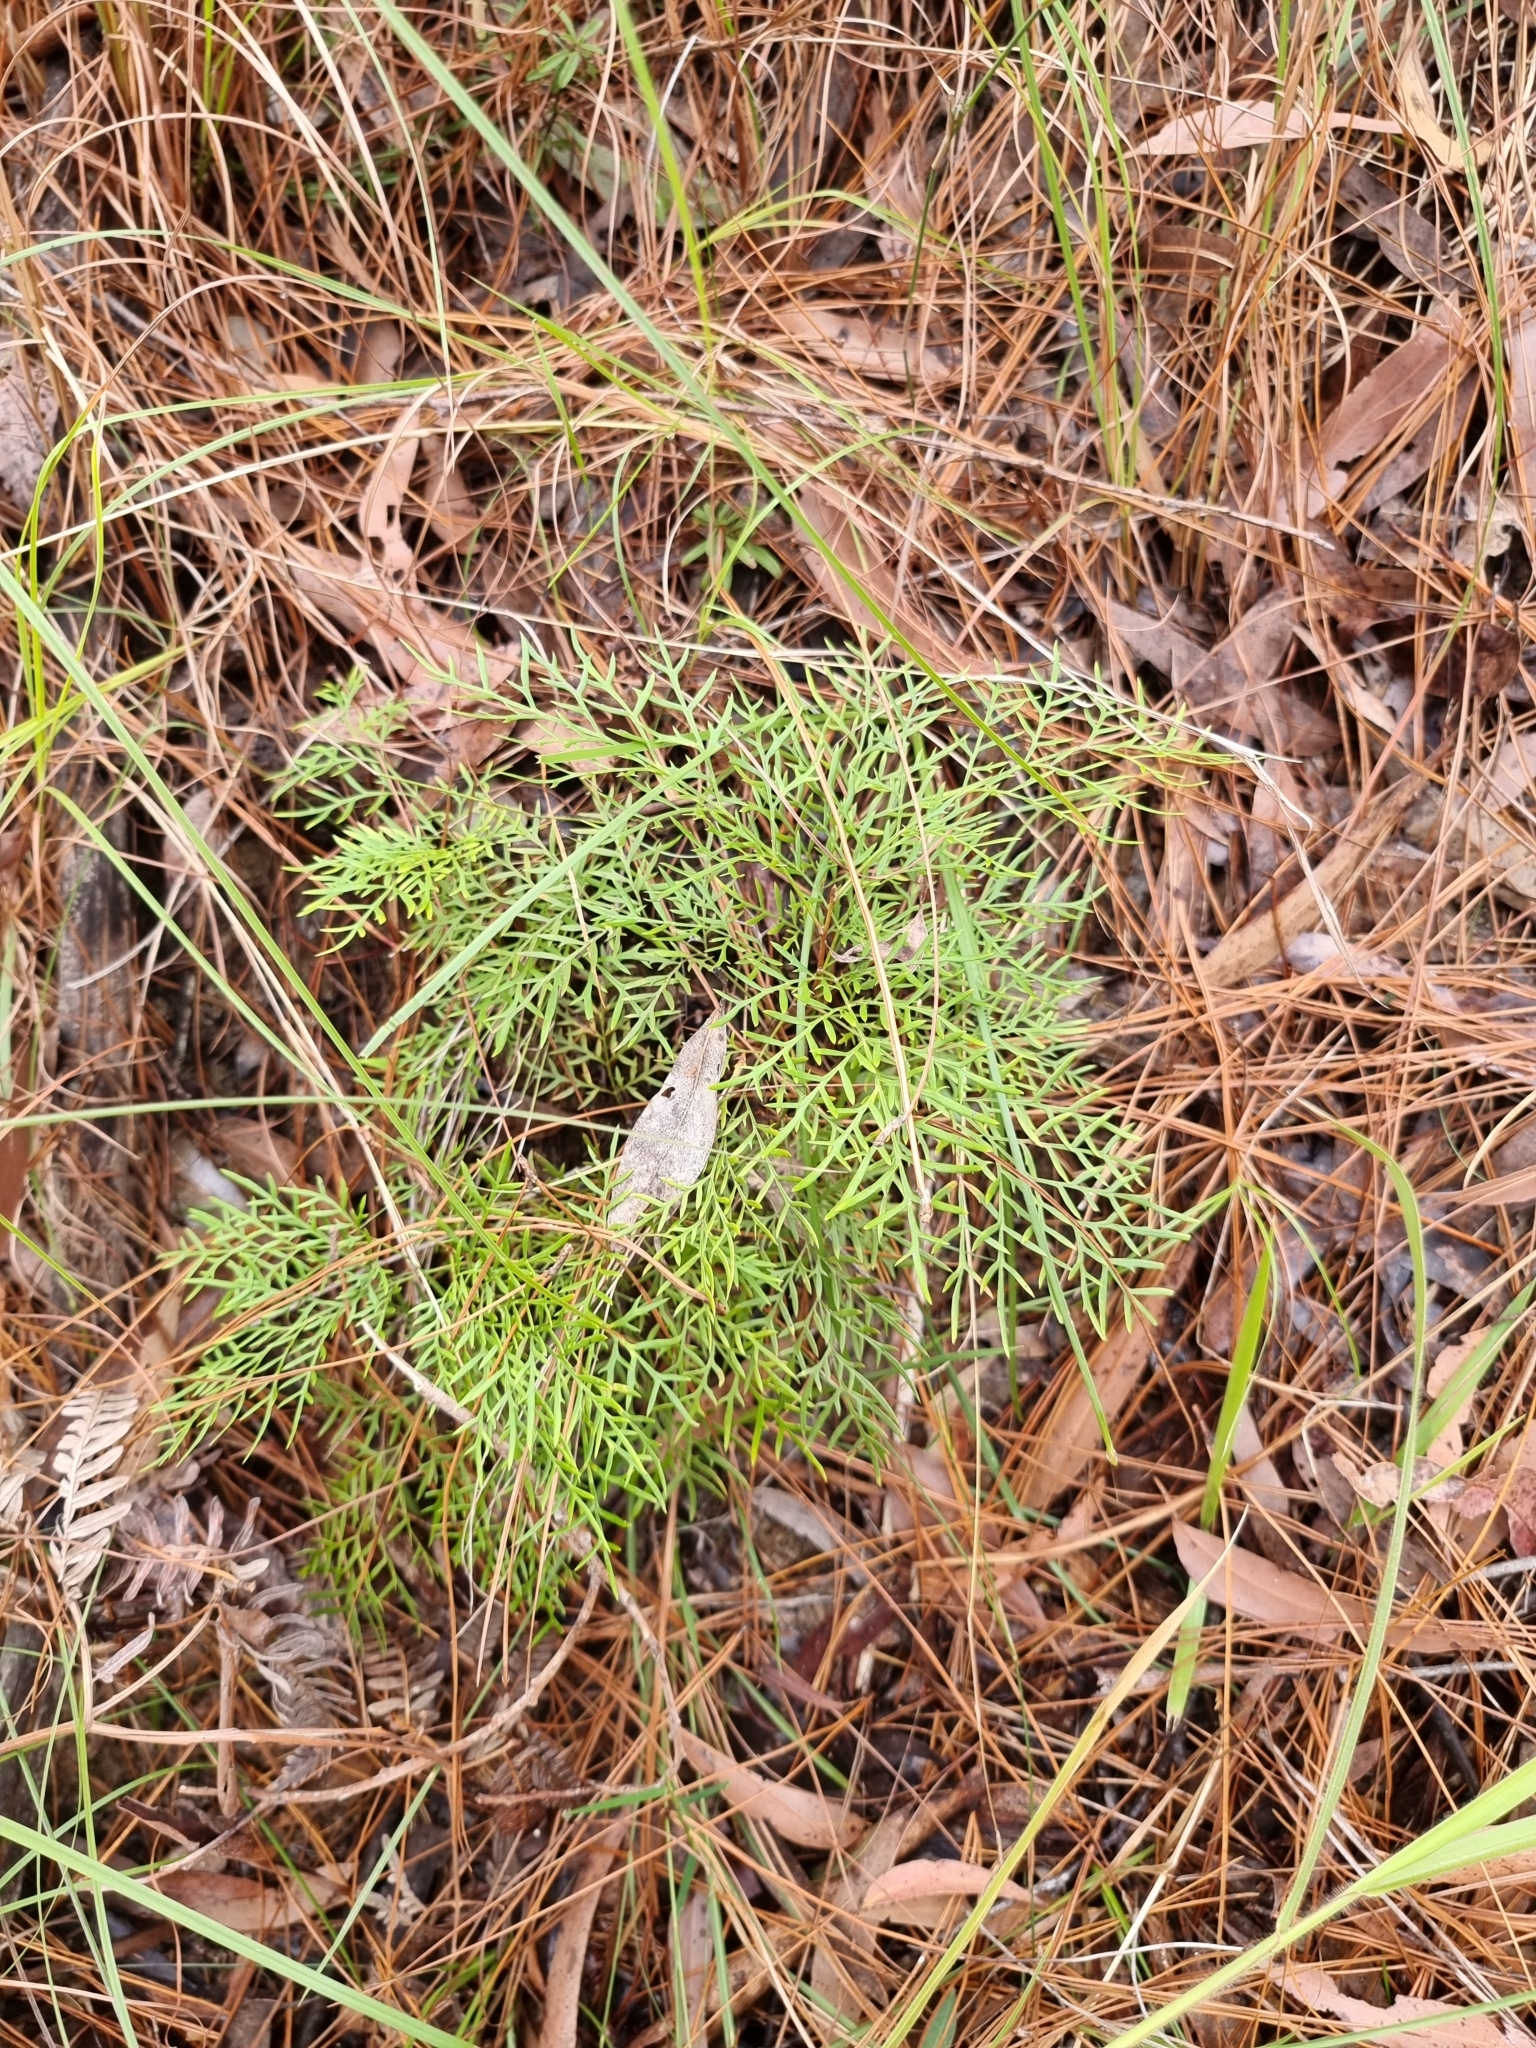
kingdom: Plantae
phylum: Tracheophyta
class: Magnoliopsida
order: Proteales
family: Proteaceae
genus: Lomatia
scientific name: Lomatia silaifolia
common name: Crinklebush
